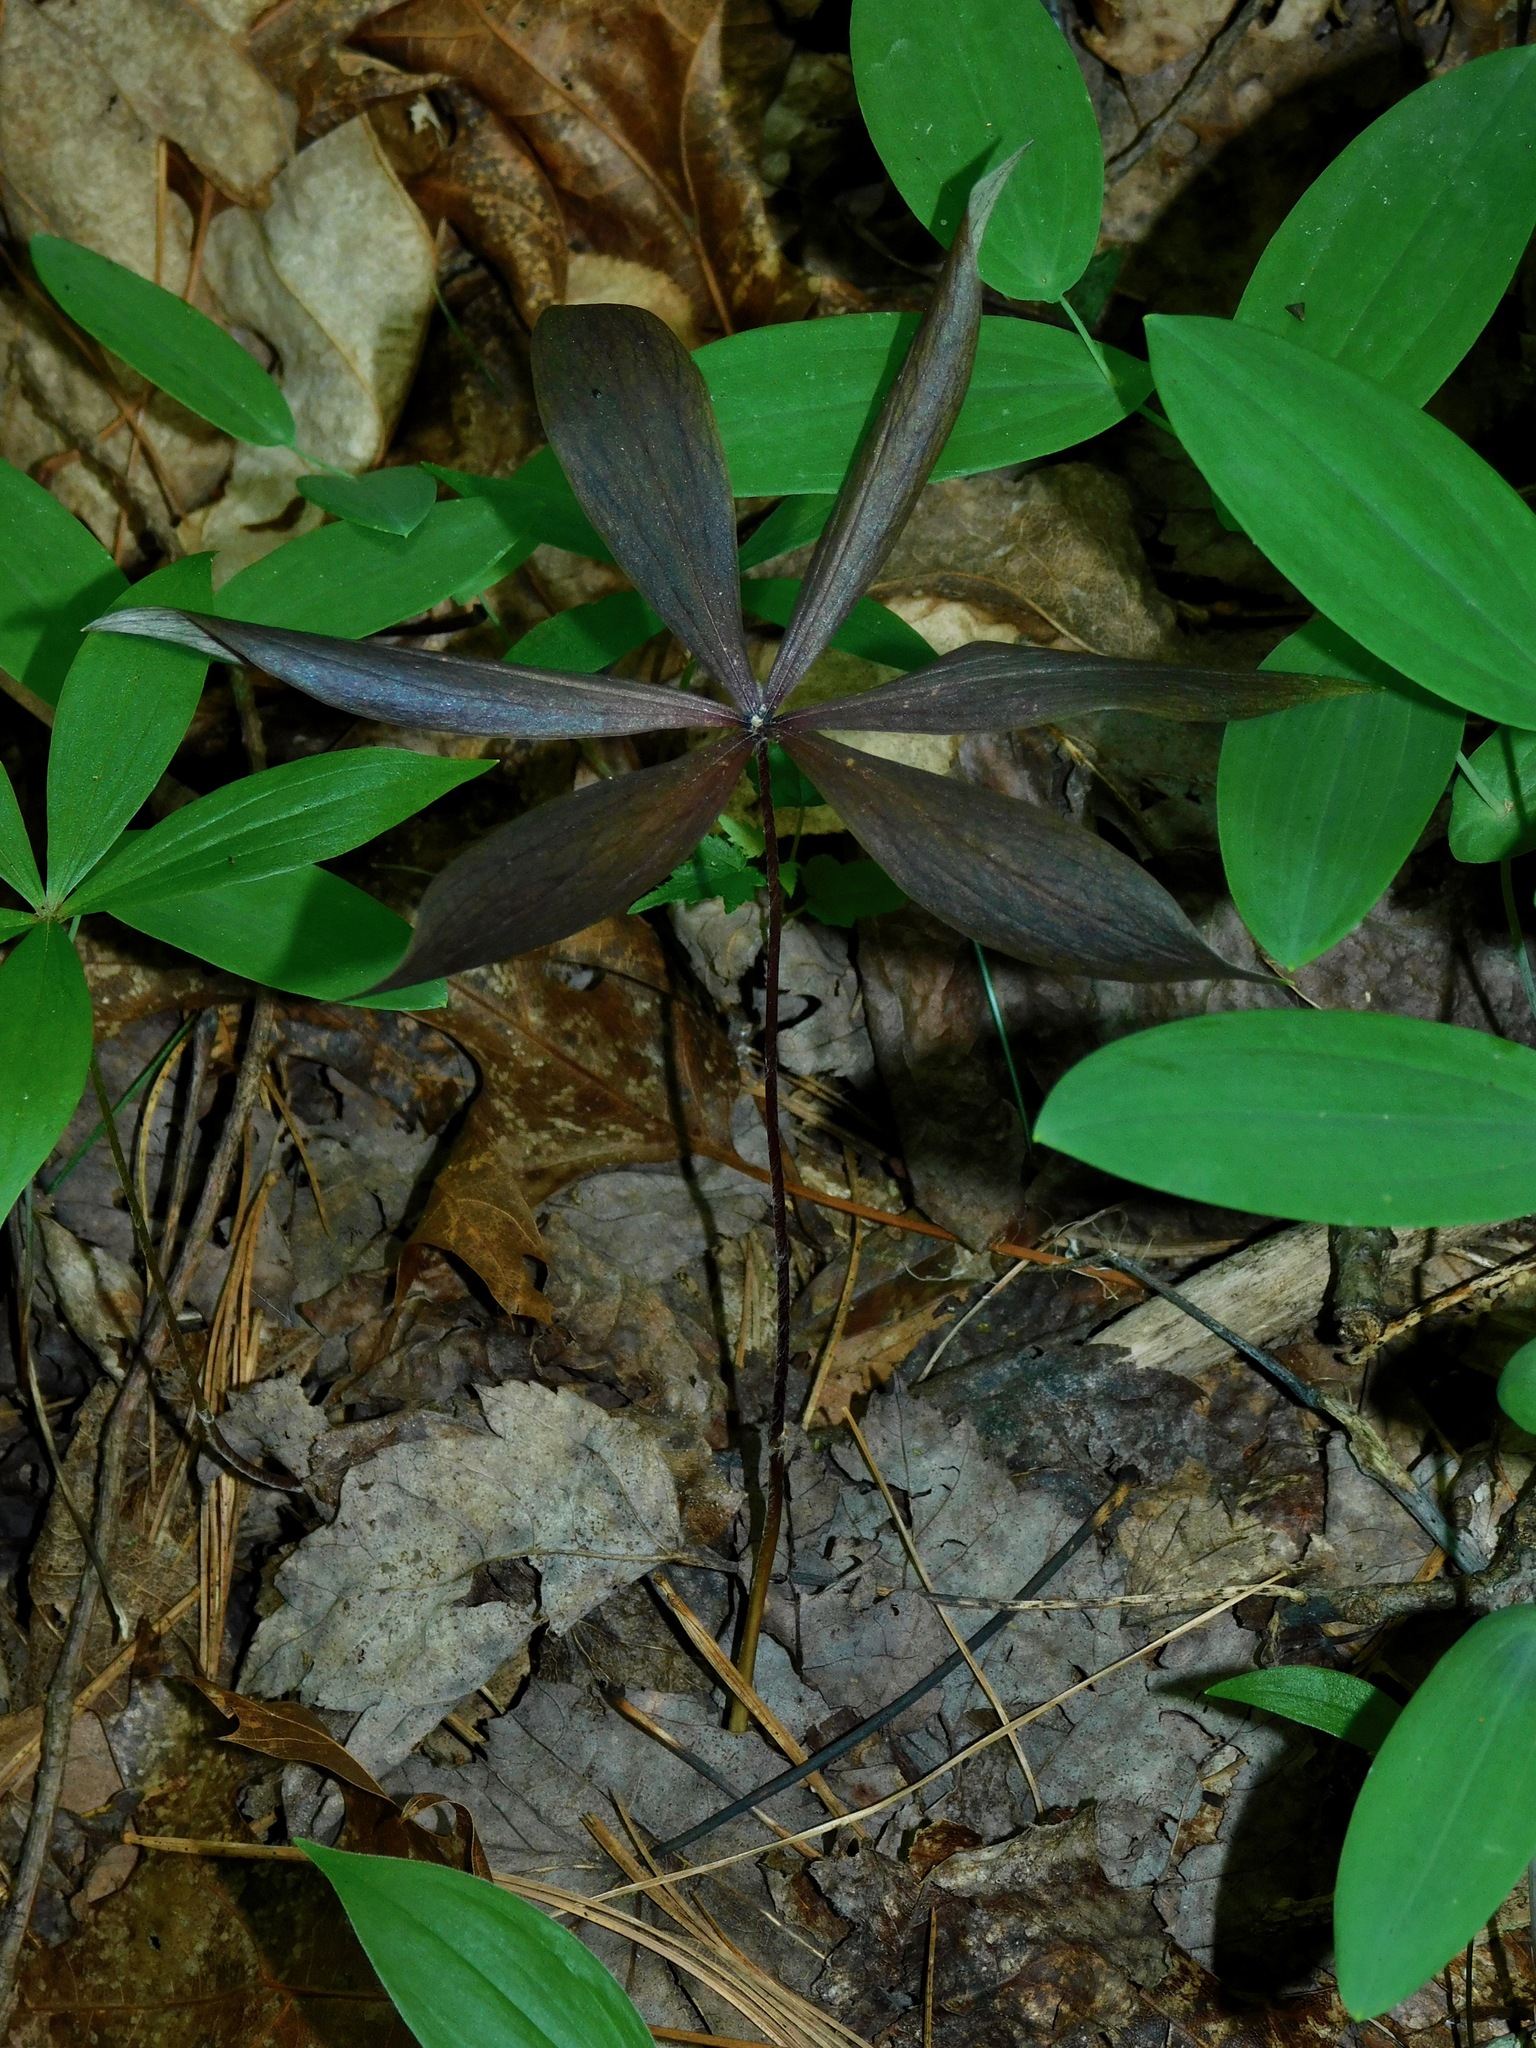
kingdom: Plantae
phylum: Tracheophyta
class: Liliopsida
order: Liliales
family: Liliaceae
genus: Medeola
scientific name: Medeola virginiana
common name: Indian cucumber-root
